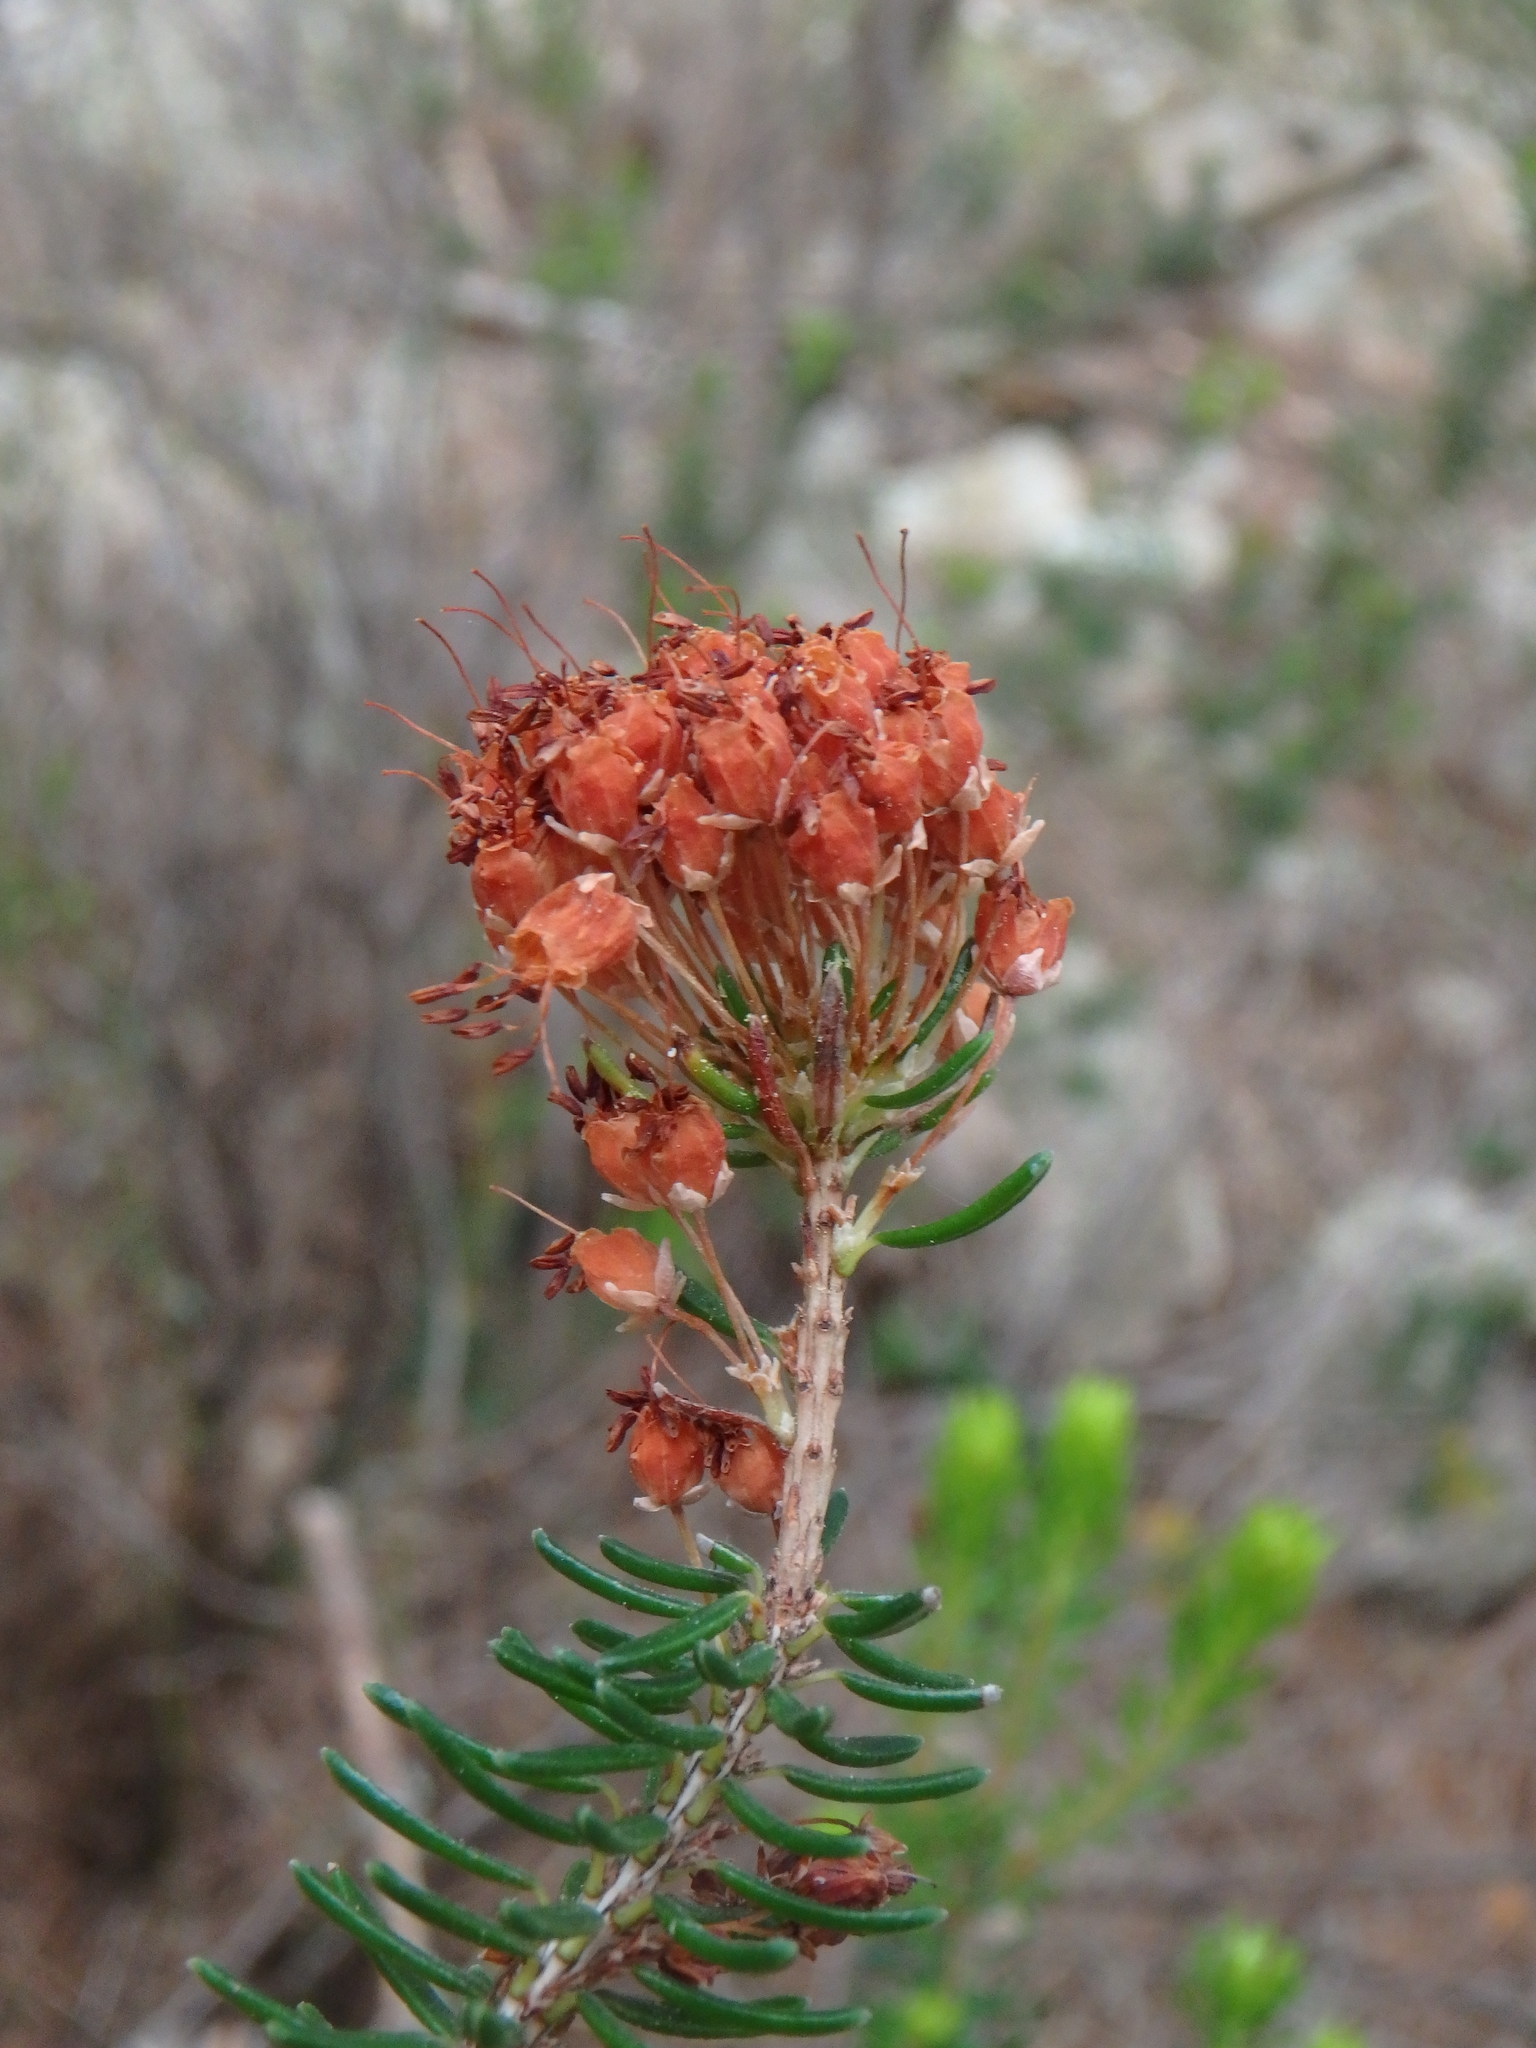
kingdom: Plantae
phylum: Tracheophyta
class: Magnoliopsida
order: Ericales
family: Ericaceae
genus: Erica
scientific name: Erica multiflora
